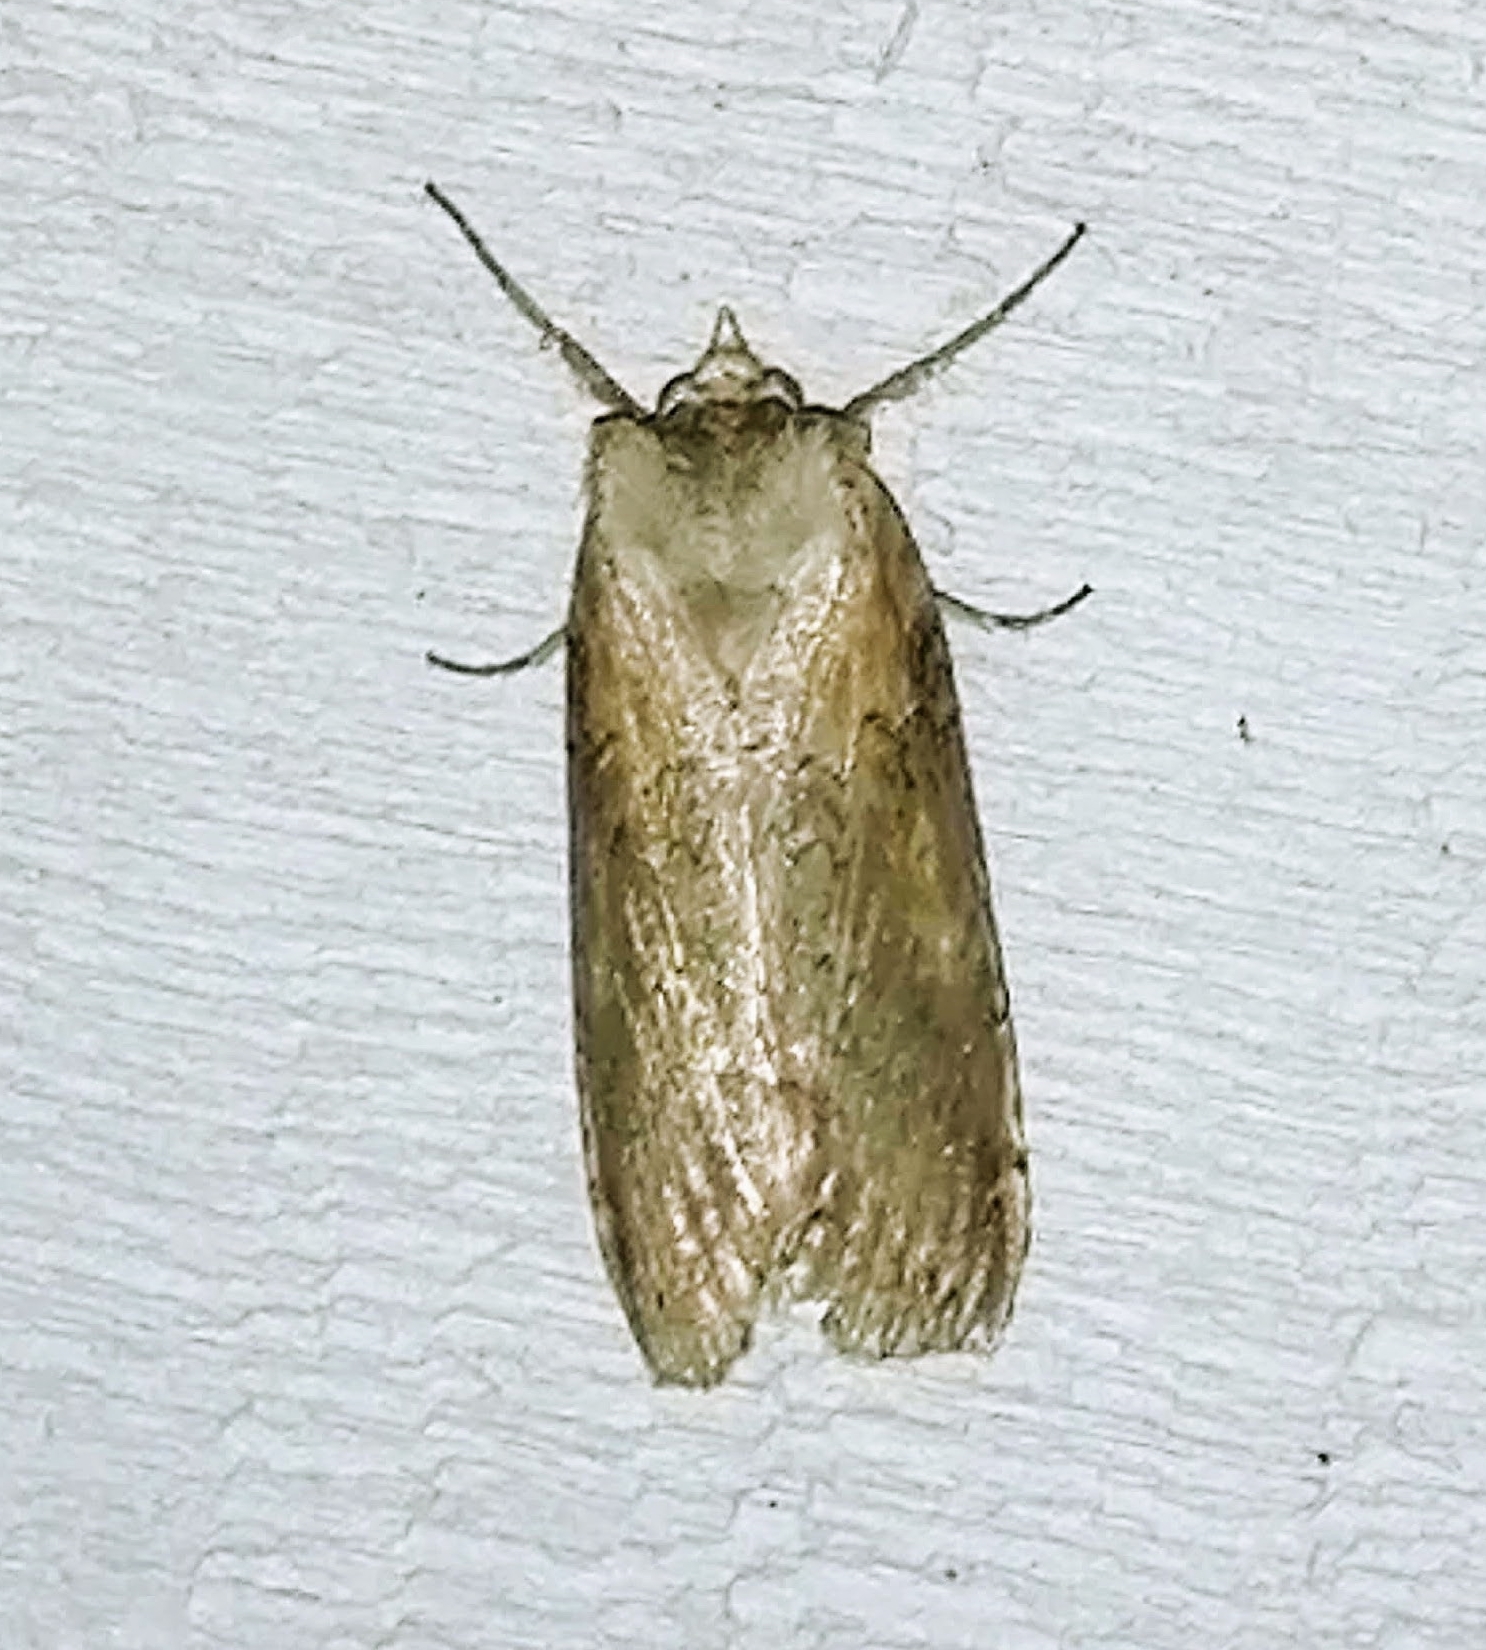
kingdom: Animalia
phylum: Arthropoda
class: Insecta
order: Lepidoptera
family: Drepanidae
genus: Pseudothyatira
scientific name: Pseudothyatira cymatophoroides
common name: Tufted thyatirid moth
